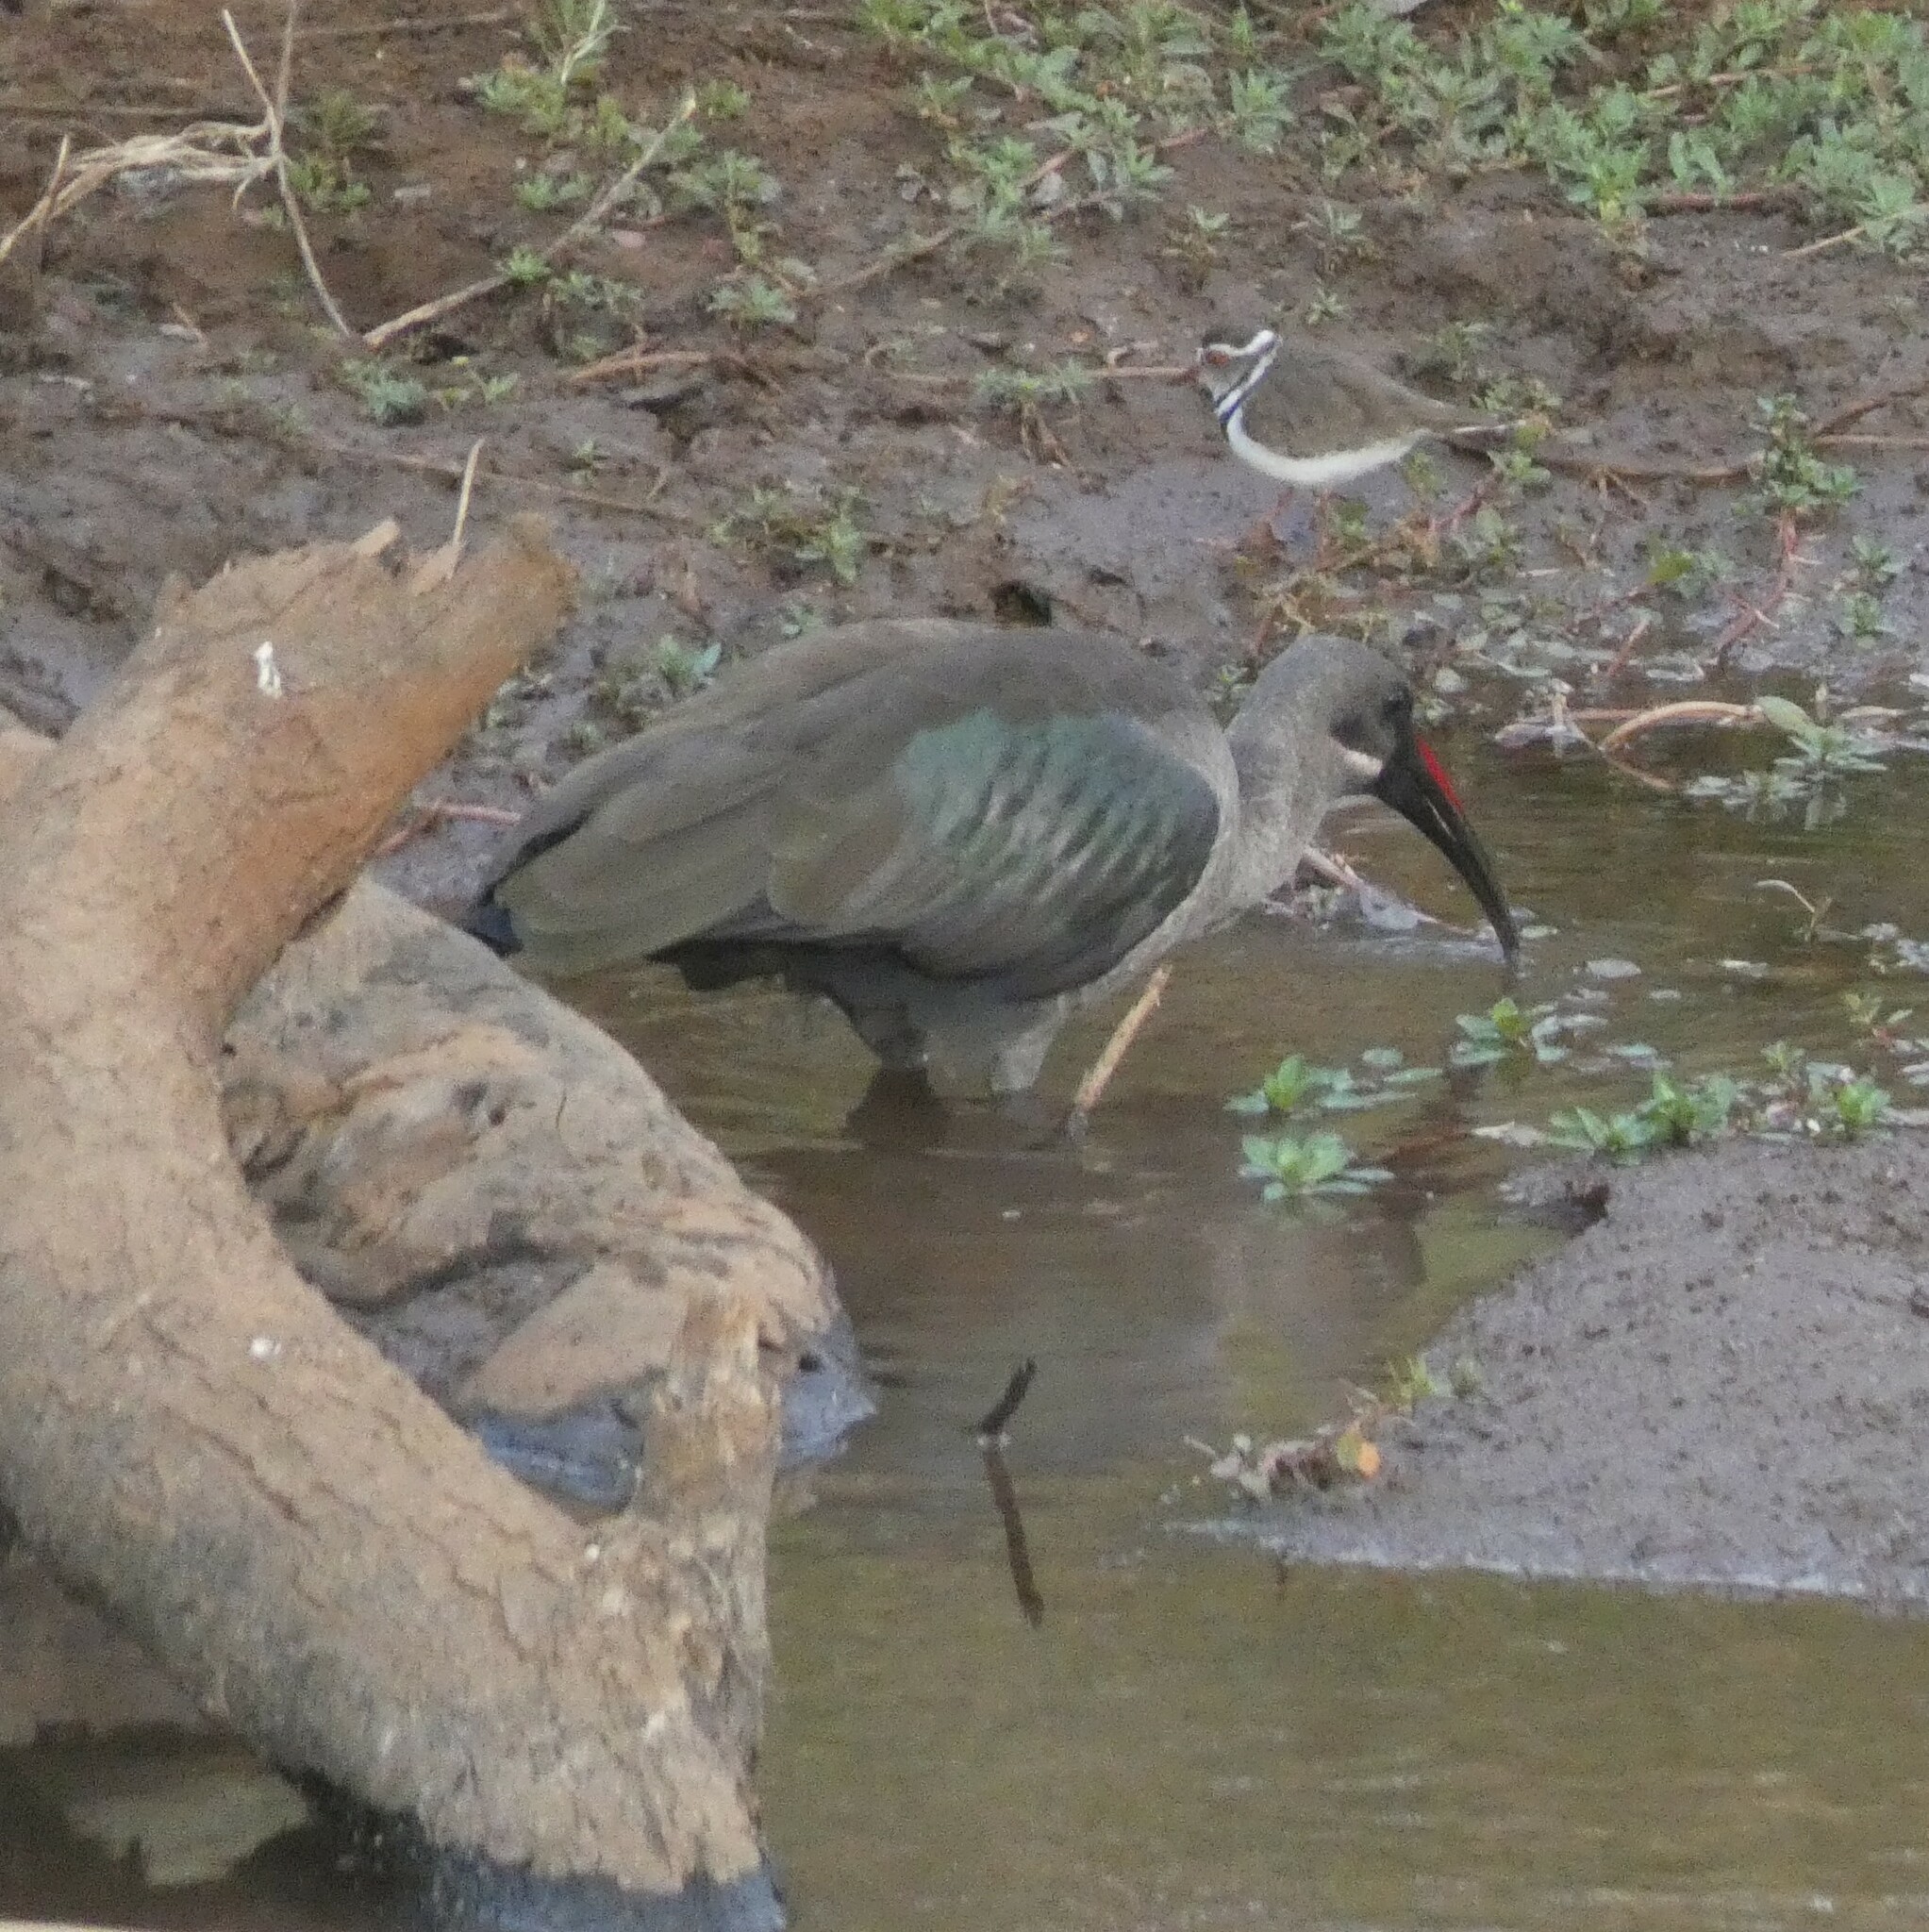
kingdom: Animalia
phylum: Chordata
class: Aves
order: Pelecaniformes
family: Threskiornithidae
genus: Bostrychia
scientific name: Bostrychia hagedash
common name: Hadada ibis
